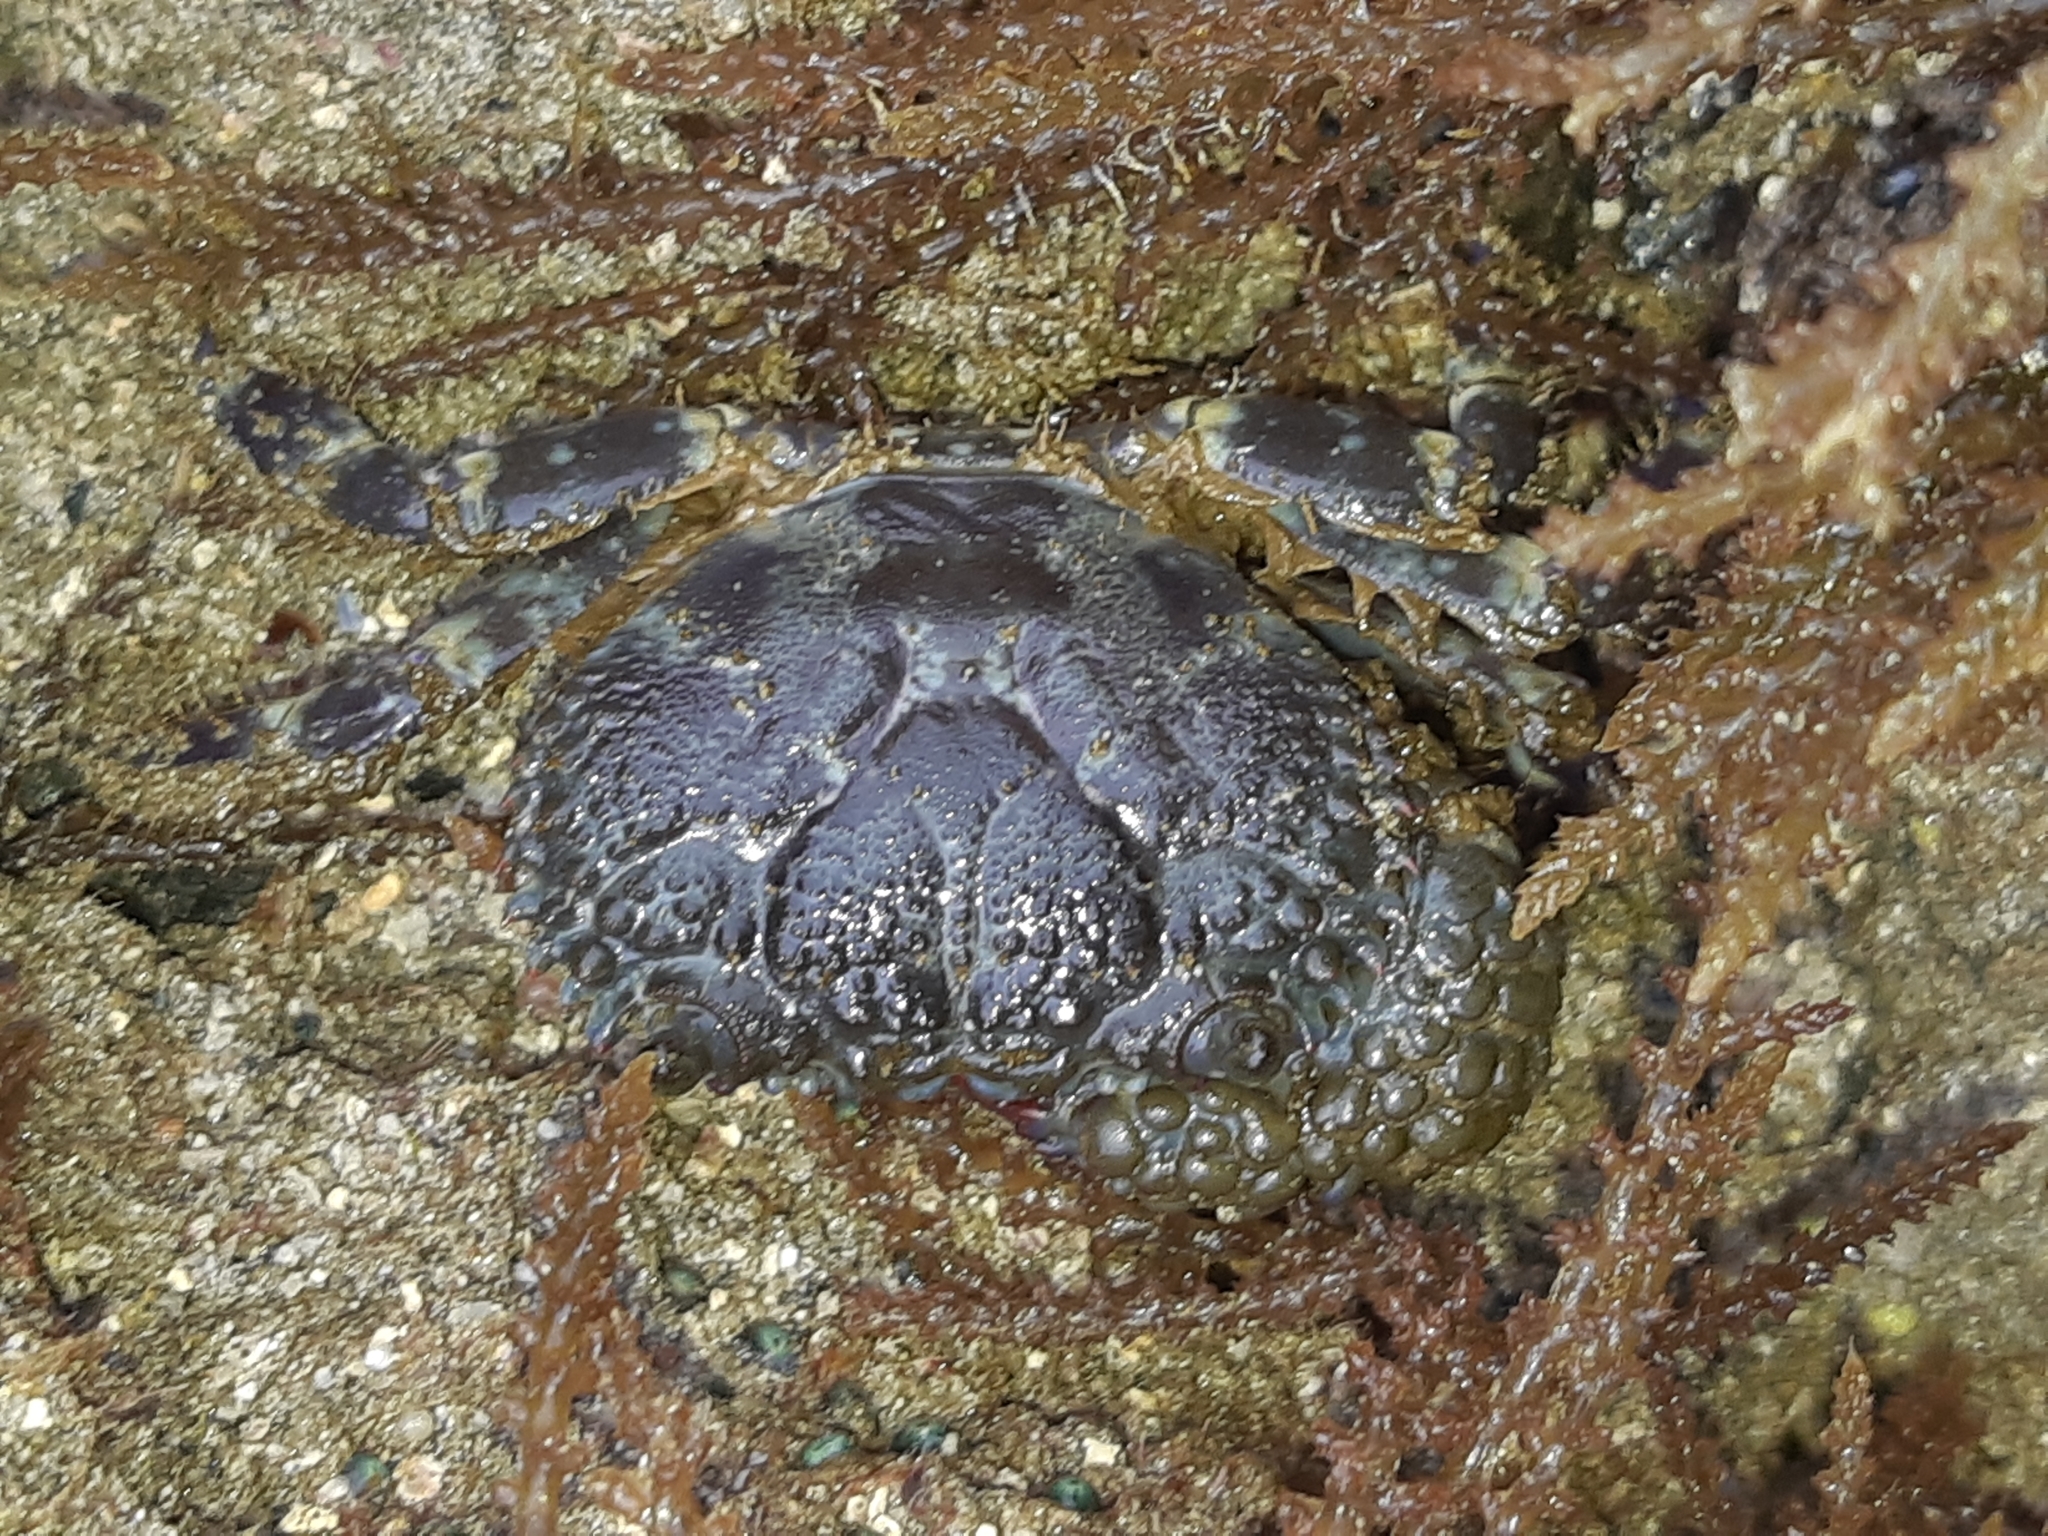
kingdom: Animalia
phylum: Arthropoda
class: Malacostraca
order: Decapoda
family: Eriphiidae
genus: Eriphia
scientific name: Eriphia squamata
